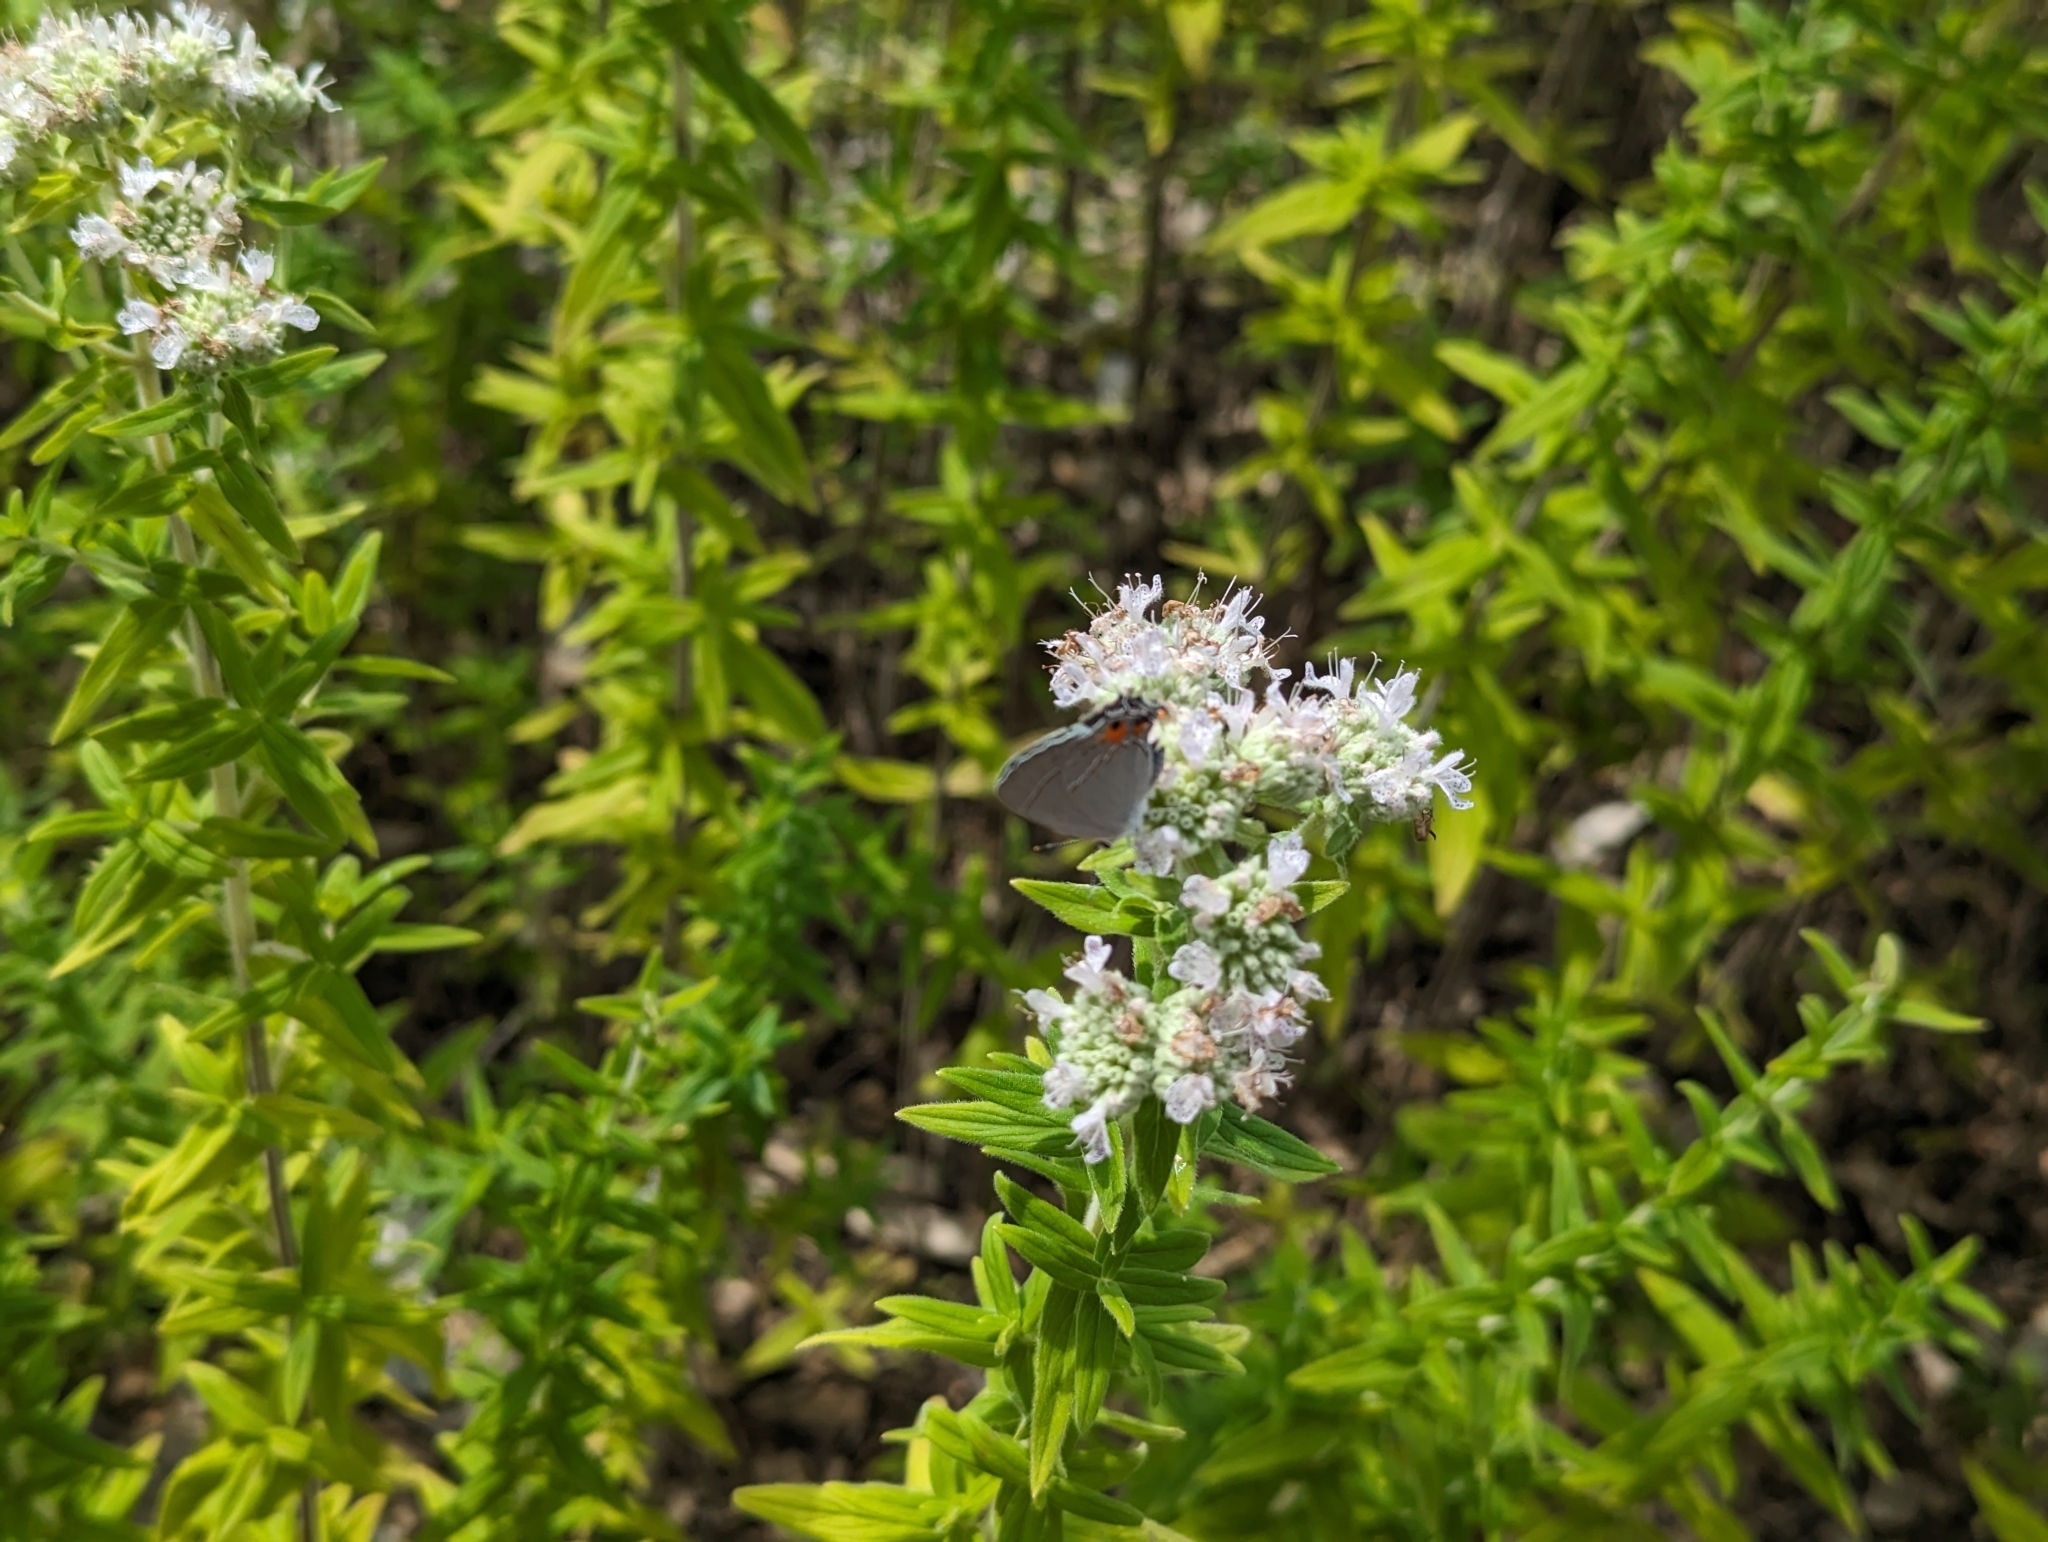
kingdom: Animalia
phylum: Arthropoda
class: Insecta
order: Lepidoptera
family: Lycaenidae
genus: Strymon
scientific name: Strymon melinus
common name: Gray hairstreak
